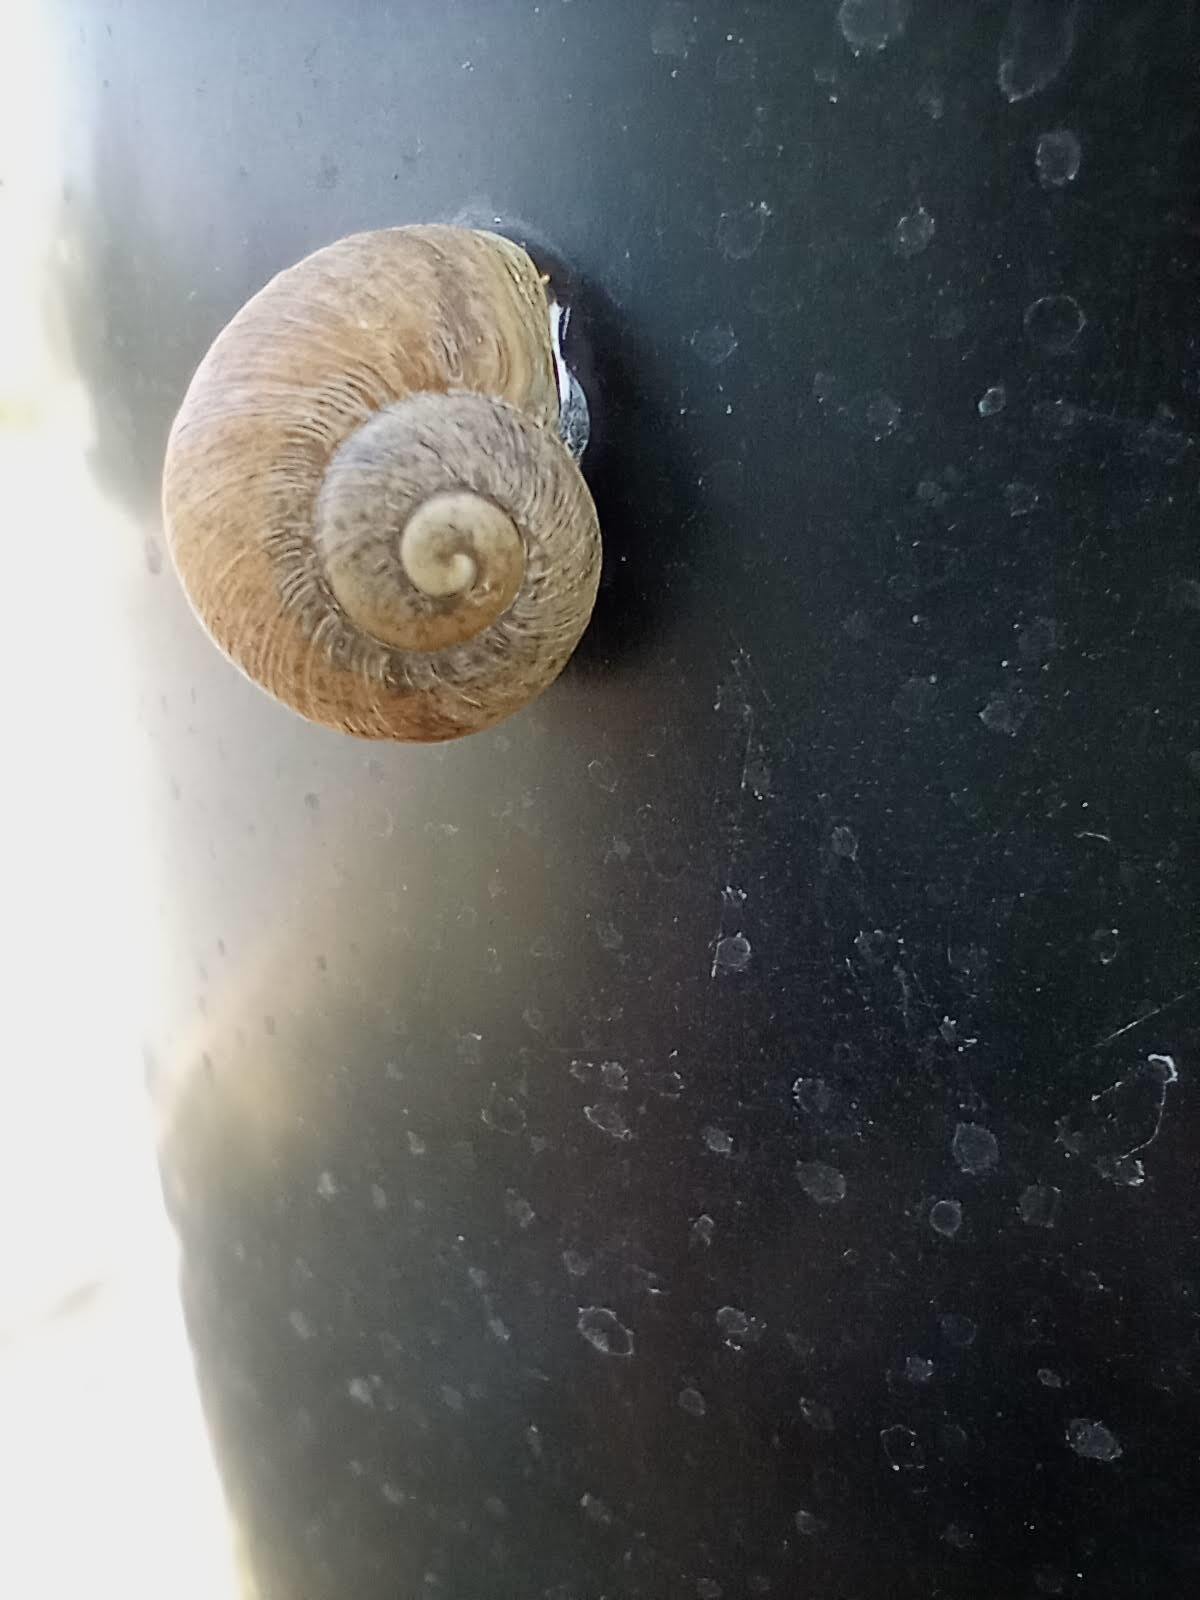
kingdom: Animalia
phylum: Mollusca
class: Gastropoda
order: Stylommatophora
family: Helicidae
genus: Cornu
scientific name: Cornu aspersum
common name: Brown garden snail
